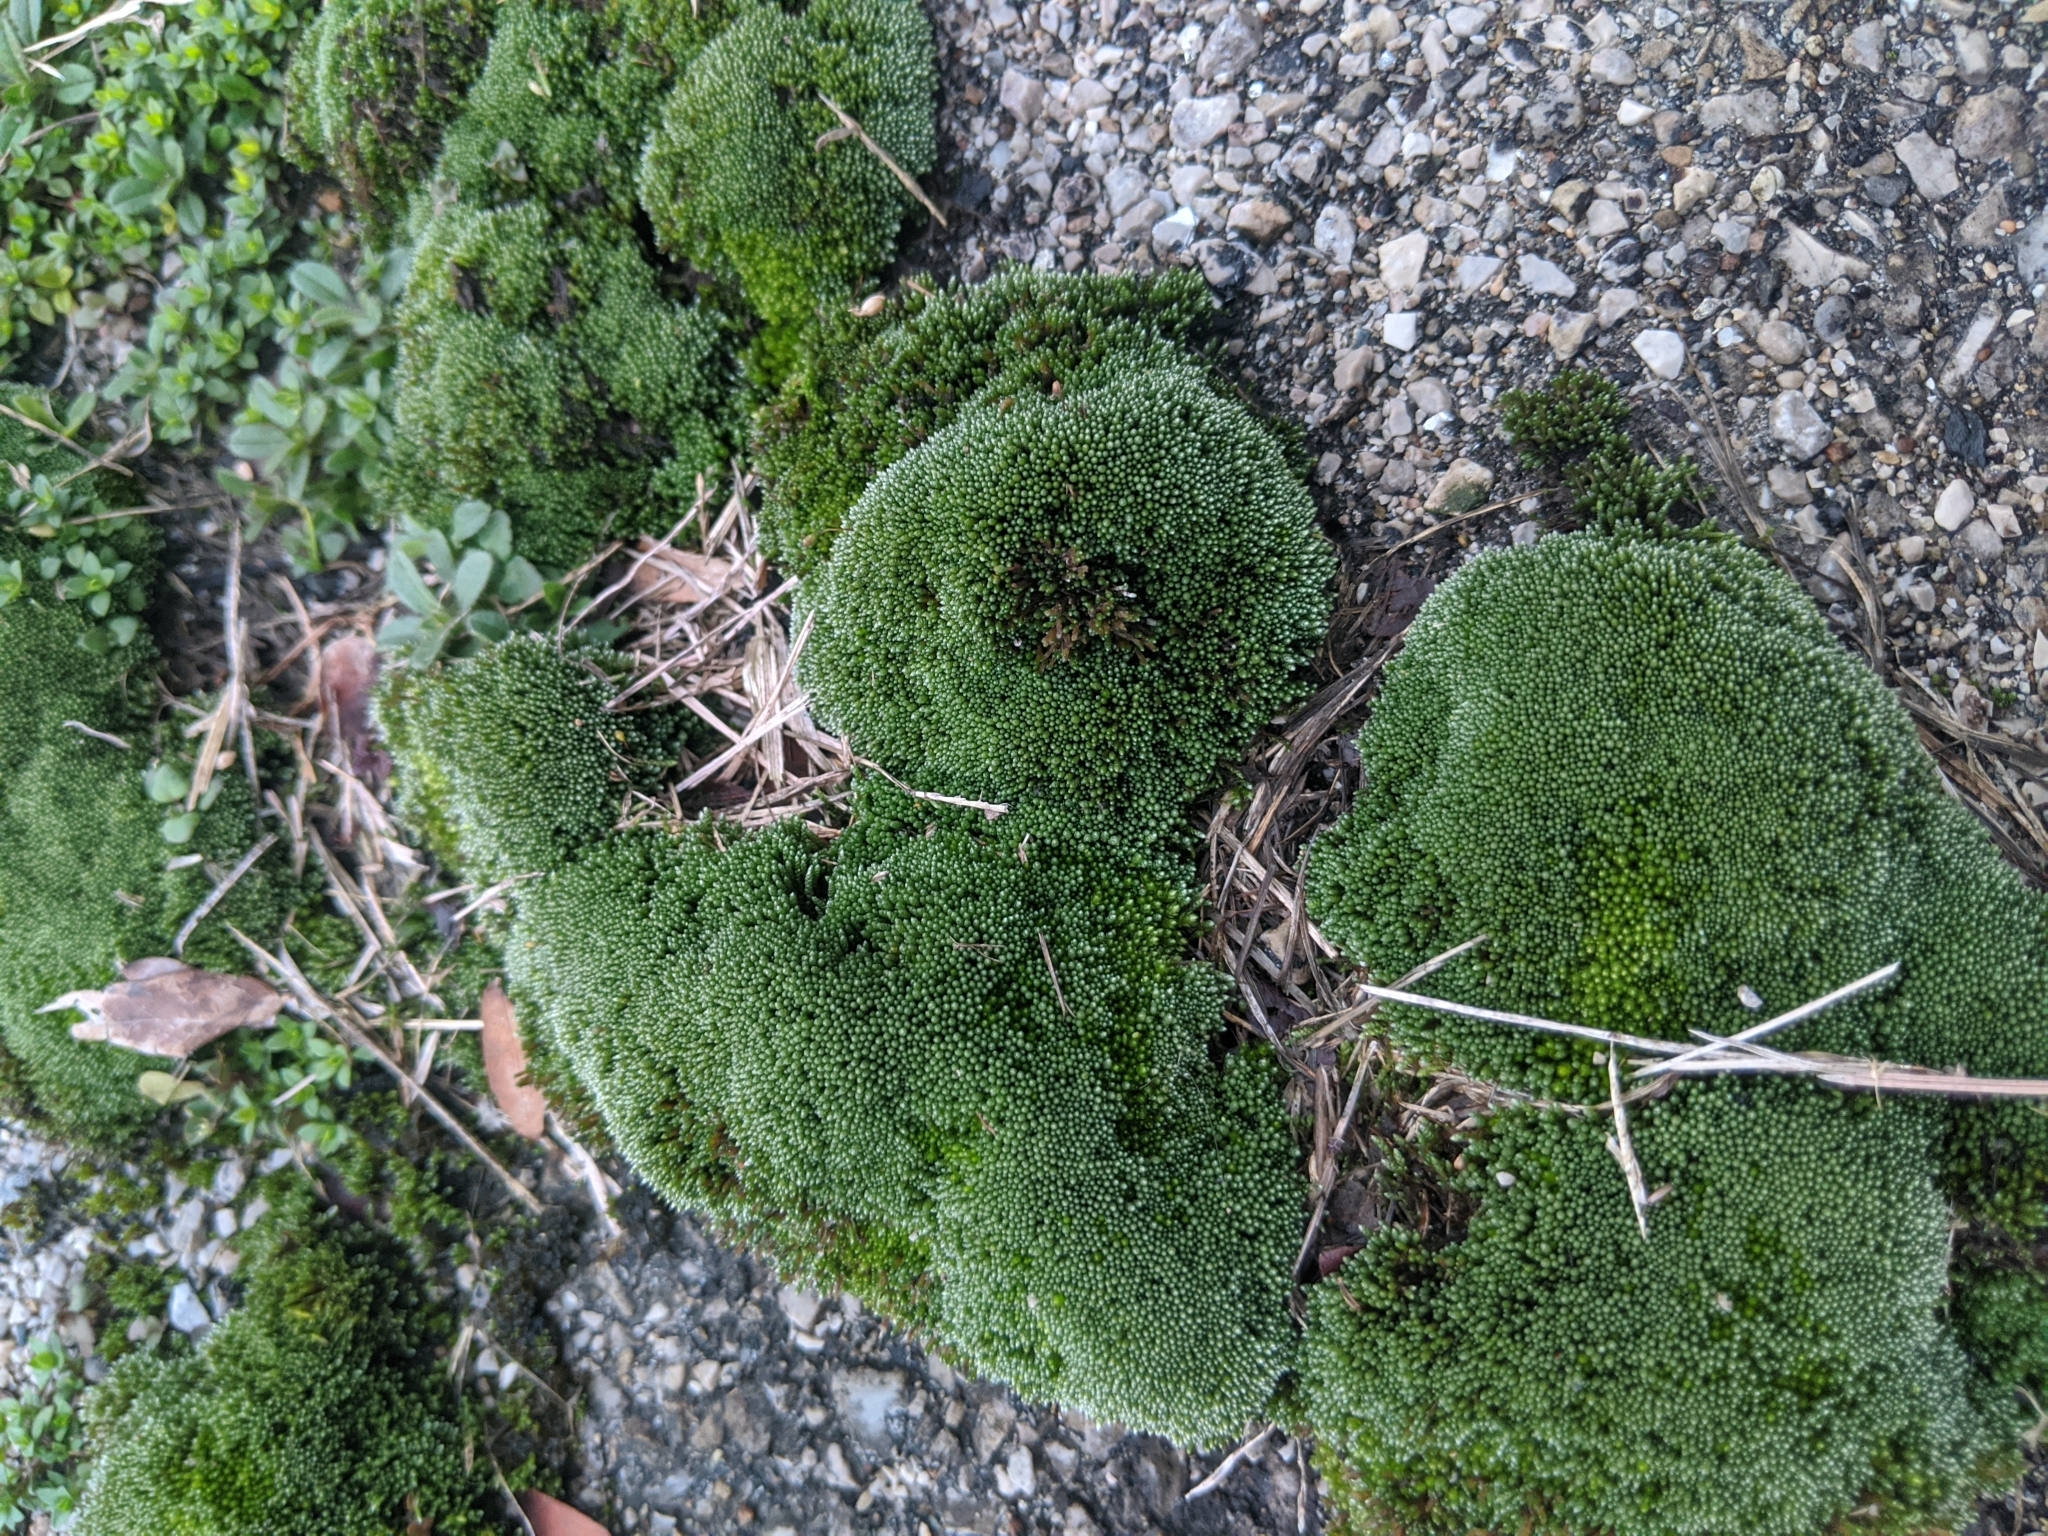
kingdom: Plantae
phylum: Bryophyta
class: Bryopsida
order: Bryales
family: Bryaceae
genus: Bryum
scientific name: Bryum argenteum
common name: Silver-moss
